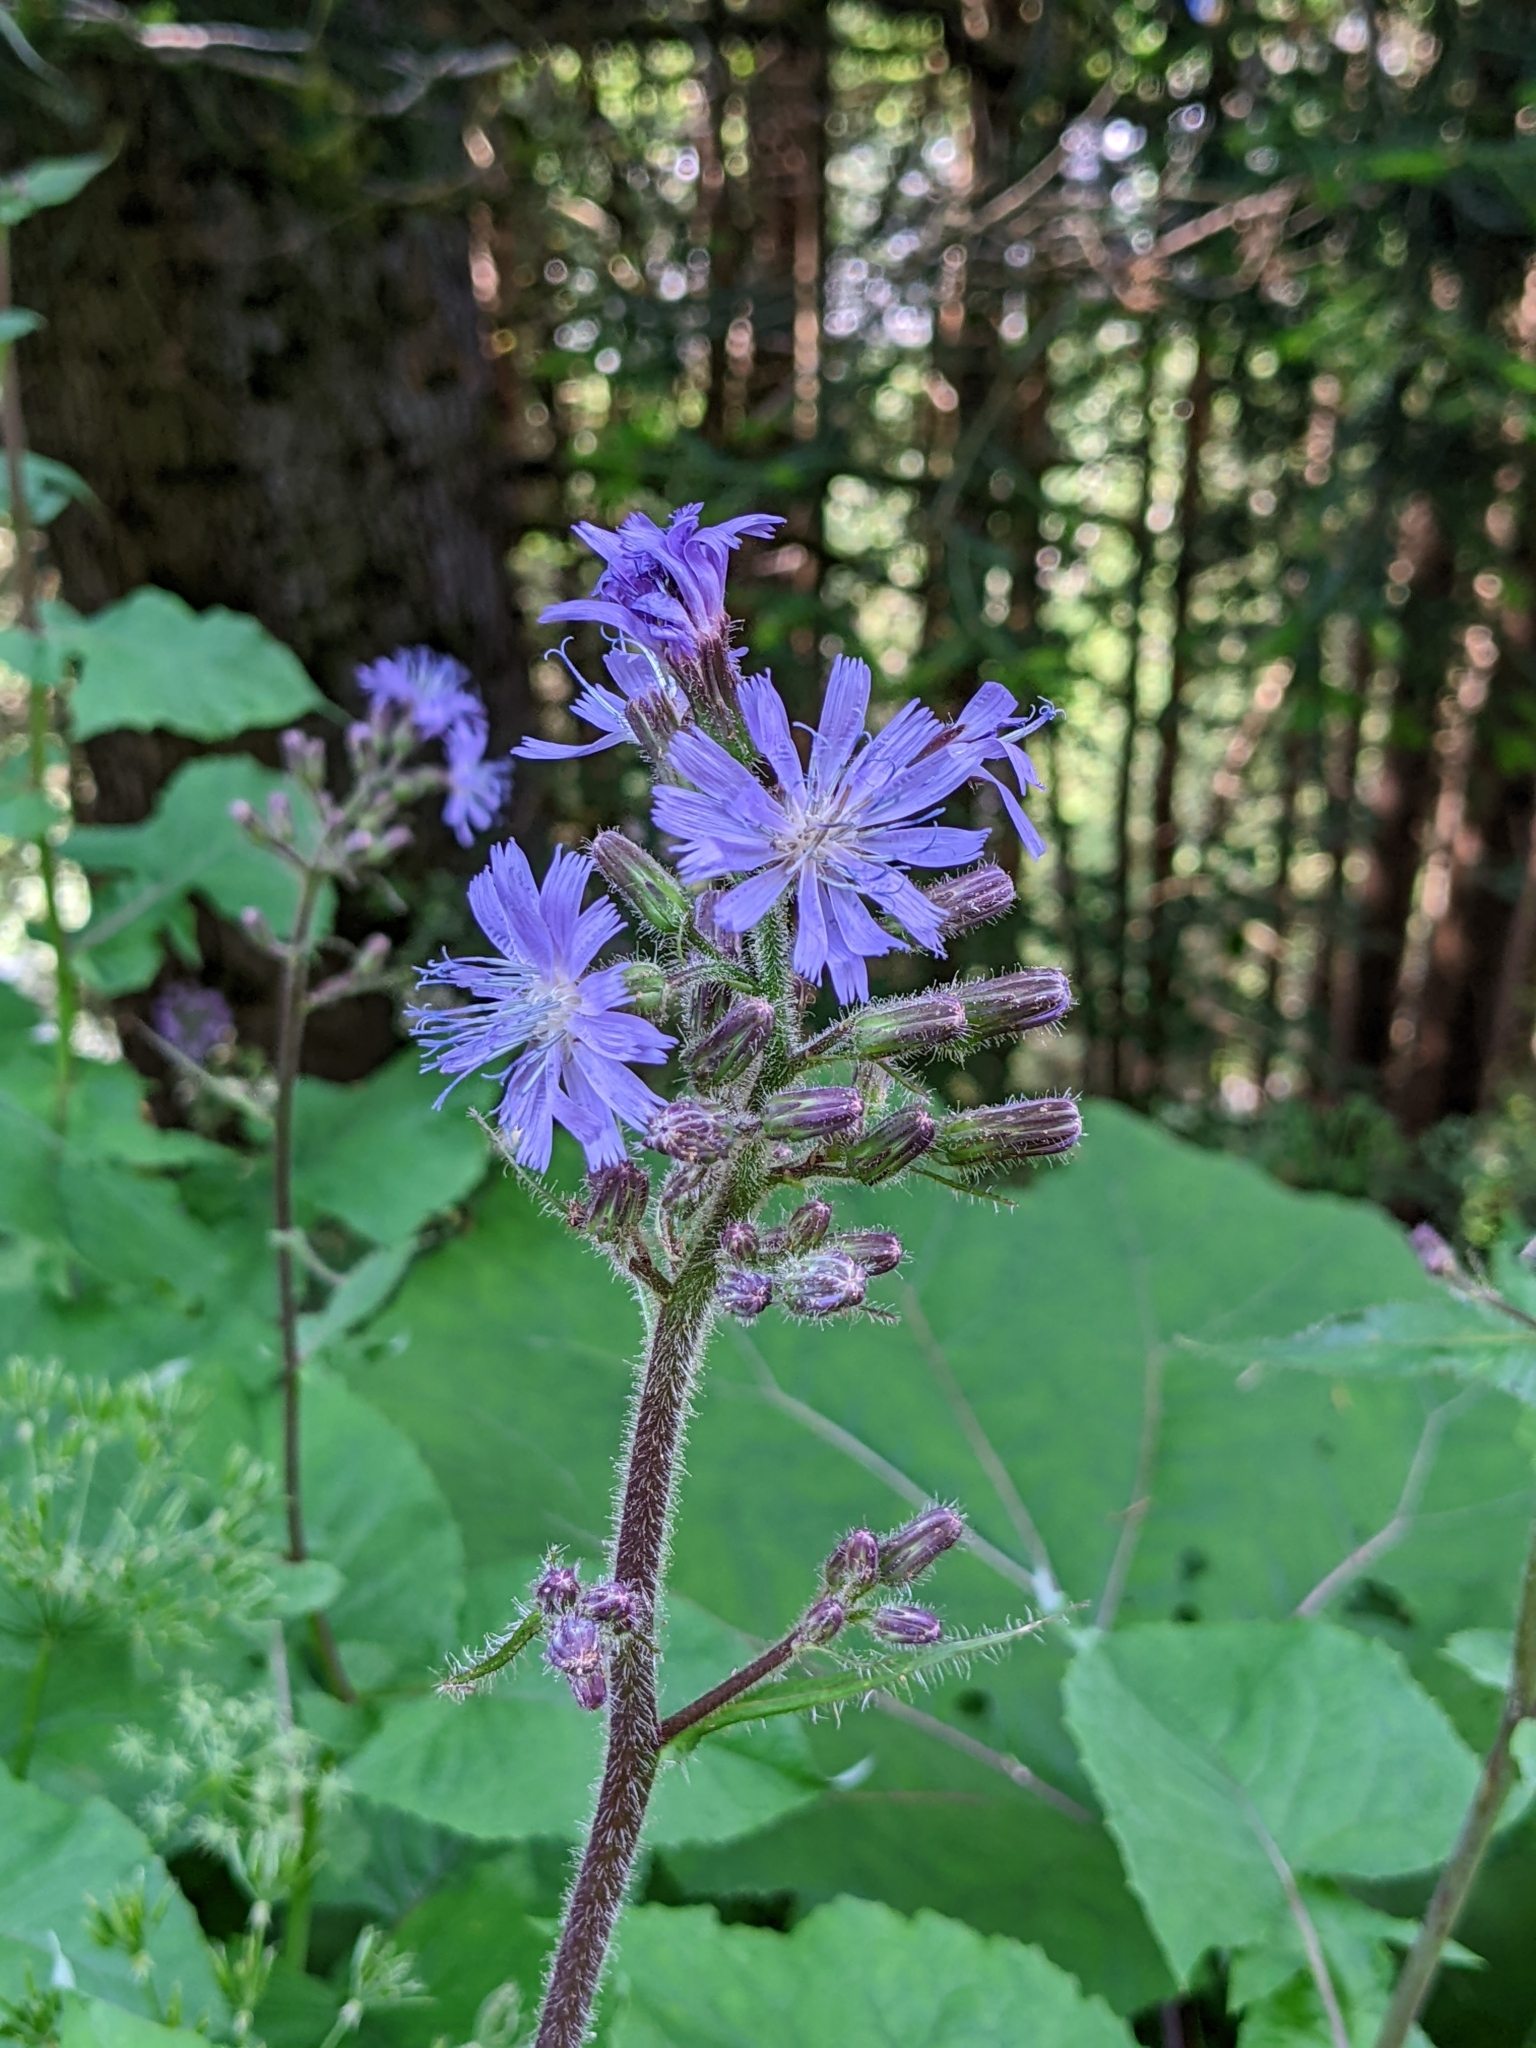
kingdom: Plantae
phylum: Tracheophyta
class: Magnoliopsida
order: Asterales
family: Asteraceae
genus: Cicerbita
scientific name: Cicerbita alpina
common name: Alpine blue-sow-thistle
